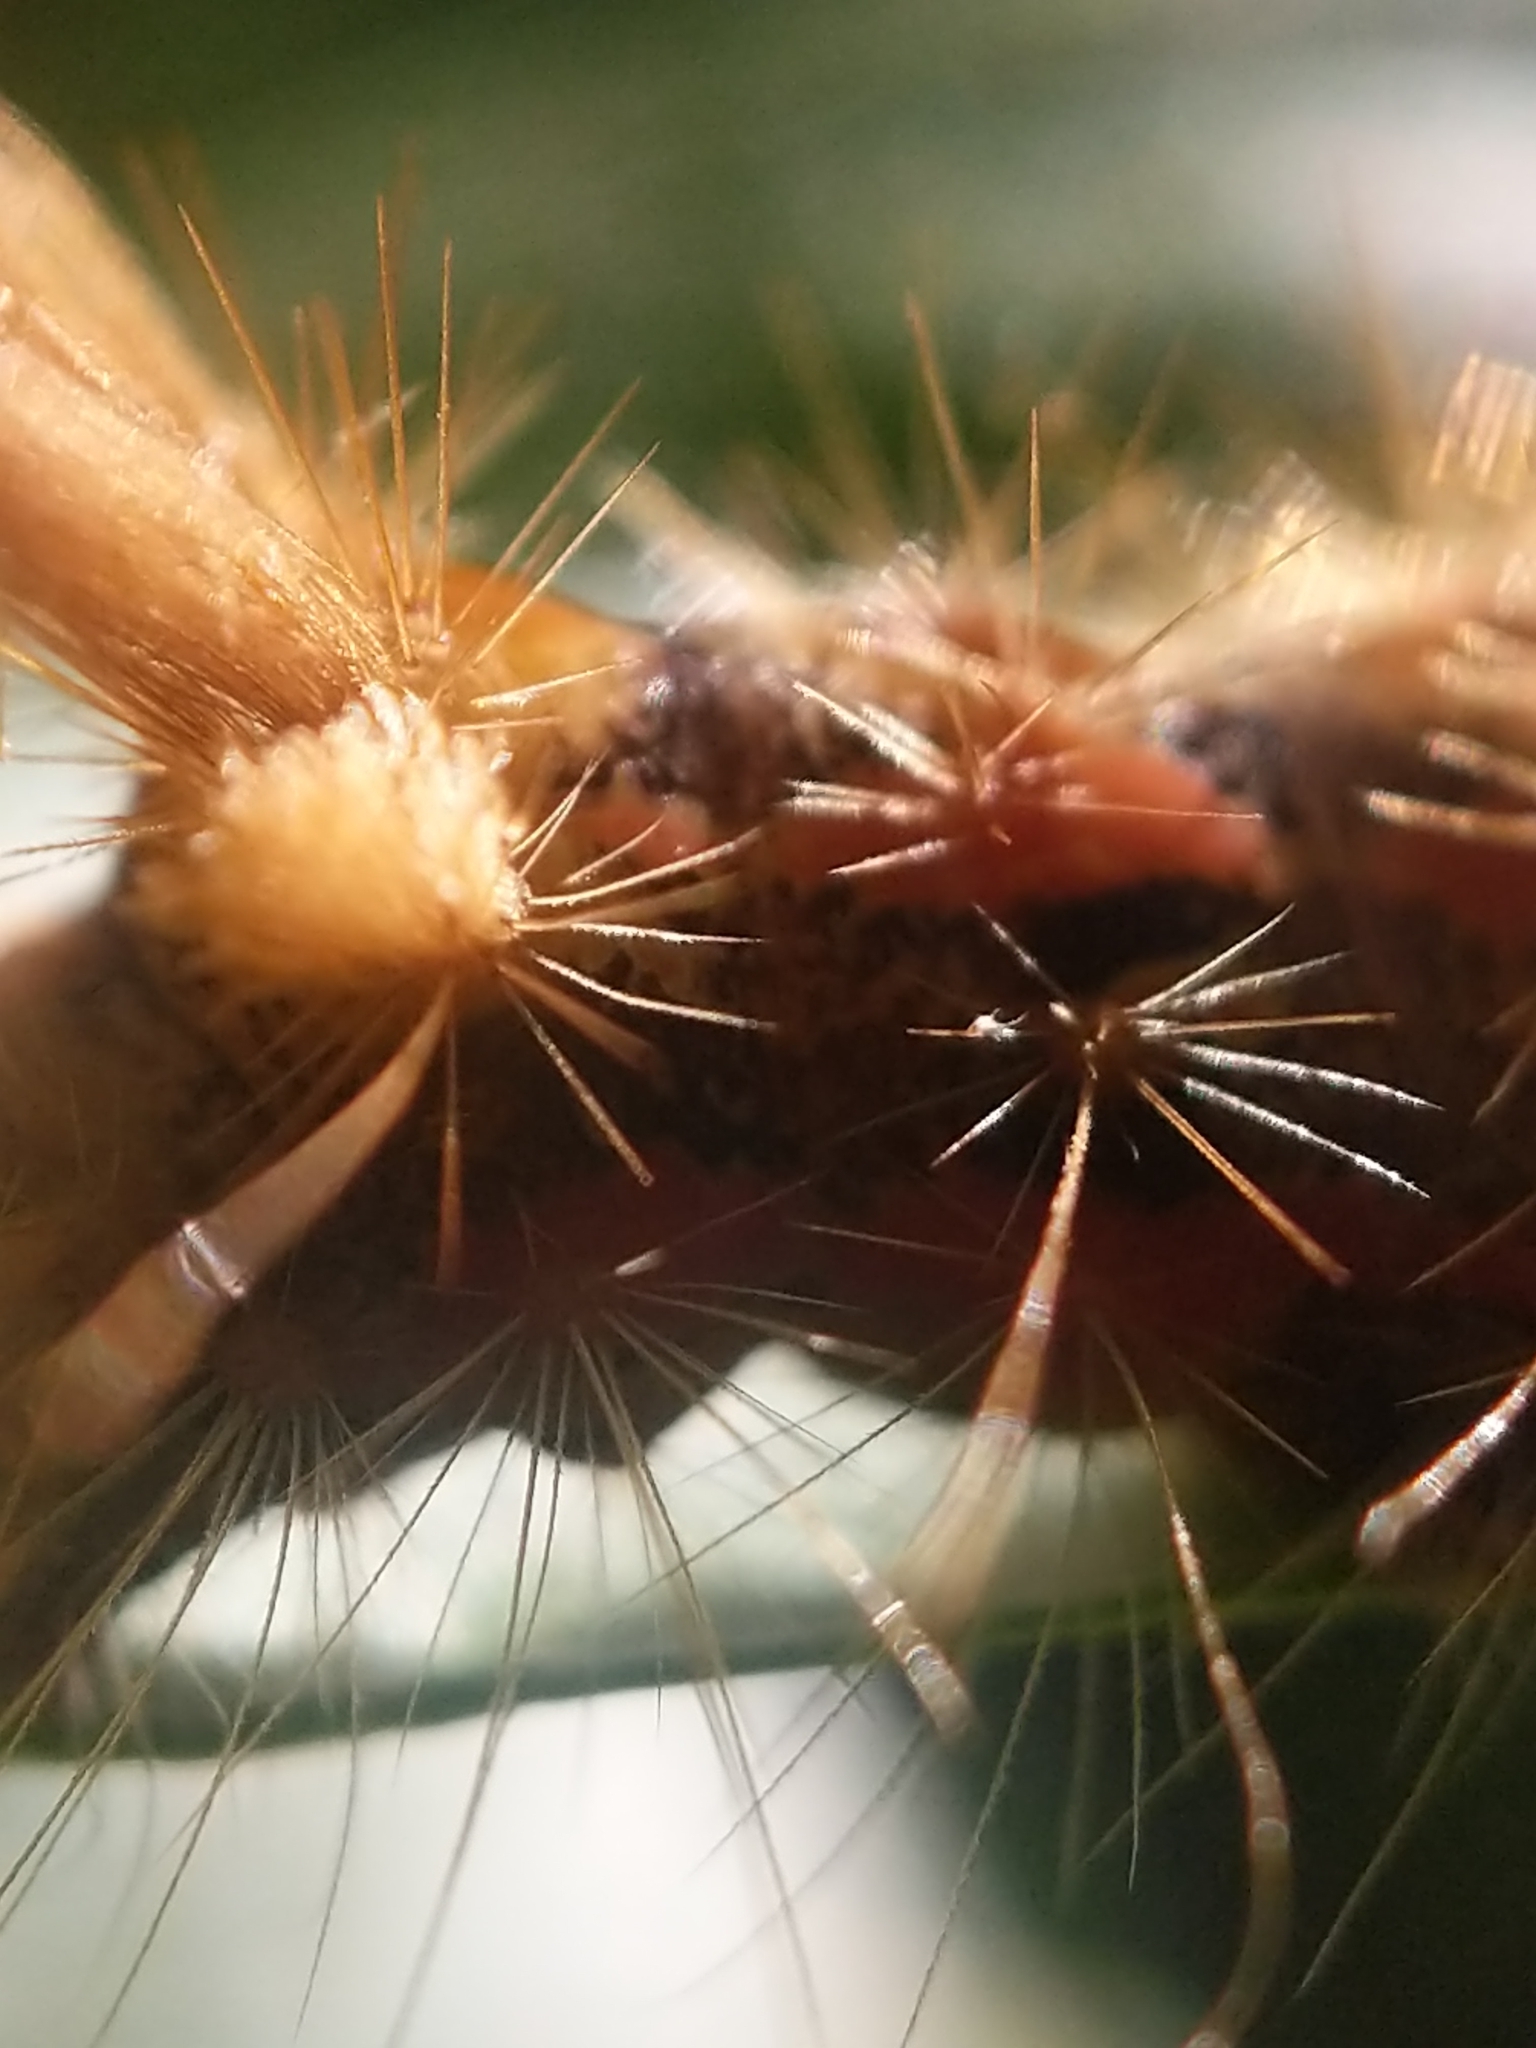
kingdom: Animalia
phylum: Arthropoda
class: Insecta
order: Lepidoptera
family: Noctuidae
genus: Acronicta
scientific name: Acronicta impleta
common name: Powdered dagger
